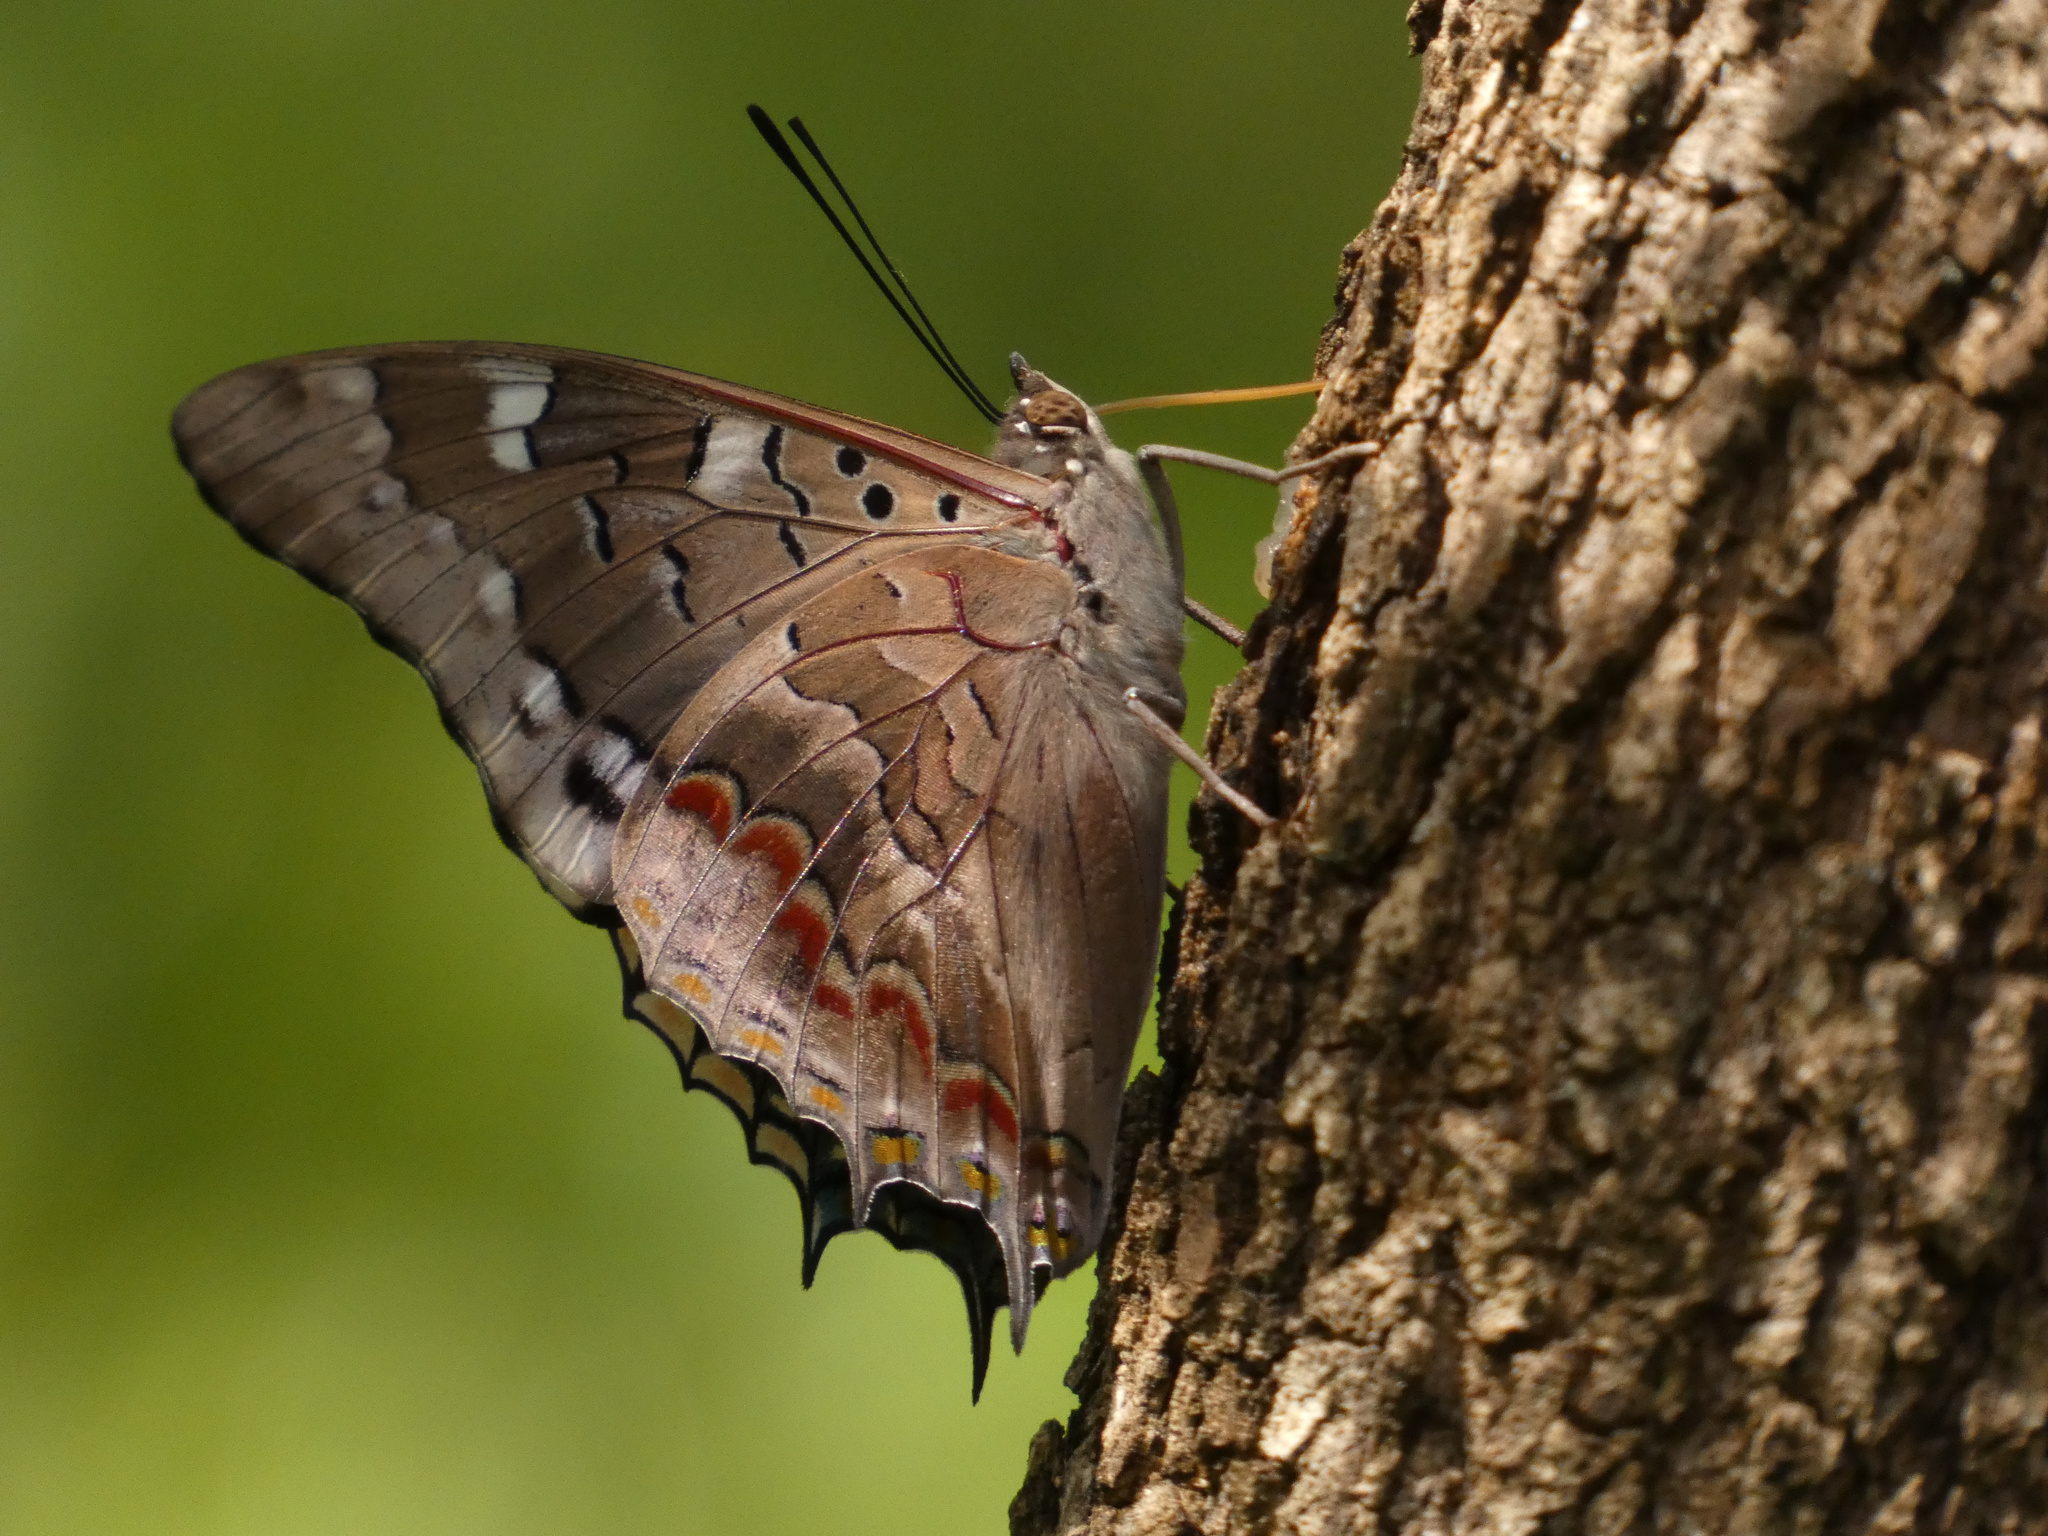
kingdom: Animalia
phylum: Arthropoda
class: Insecta
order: Lepidoptera
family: Nymphalidae
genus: Charaxes
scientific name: Charaxes guderiana
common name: Blue-spangled charaxes
